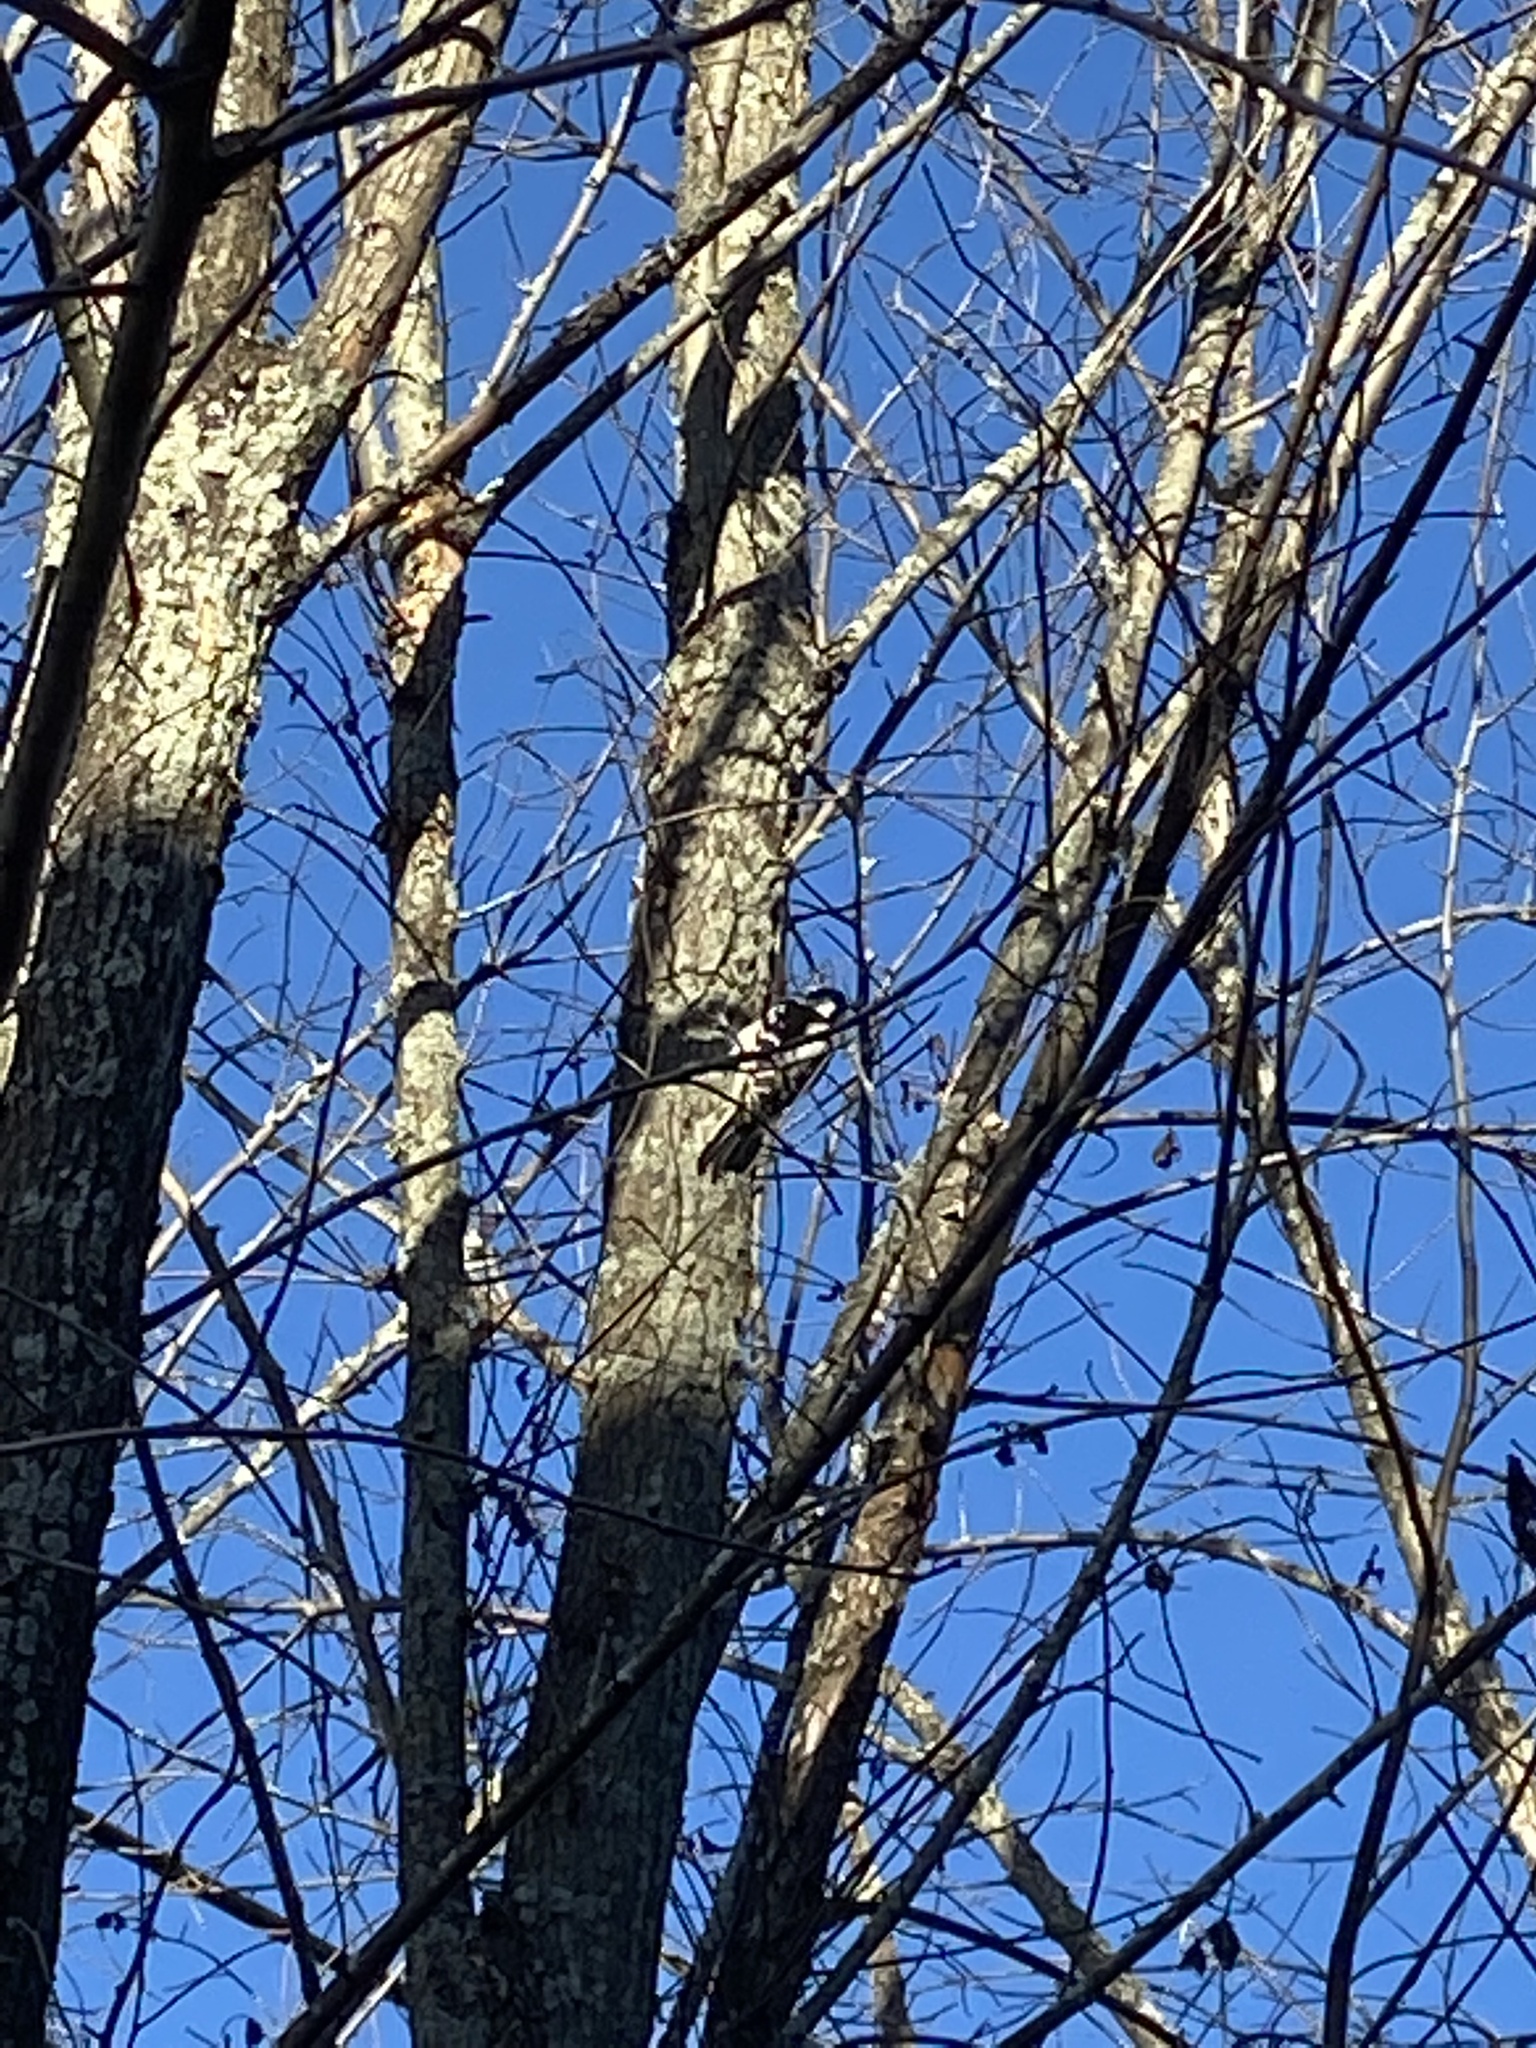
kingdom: Animalia
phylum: Chordata
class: Aves
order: Piciformes
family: Picidae
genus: Dryobates
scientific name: Dryobates pubescens
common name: Downy woodpecker
